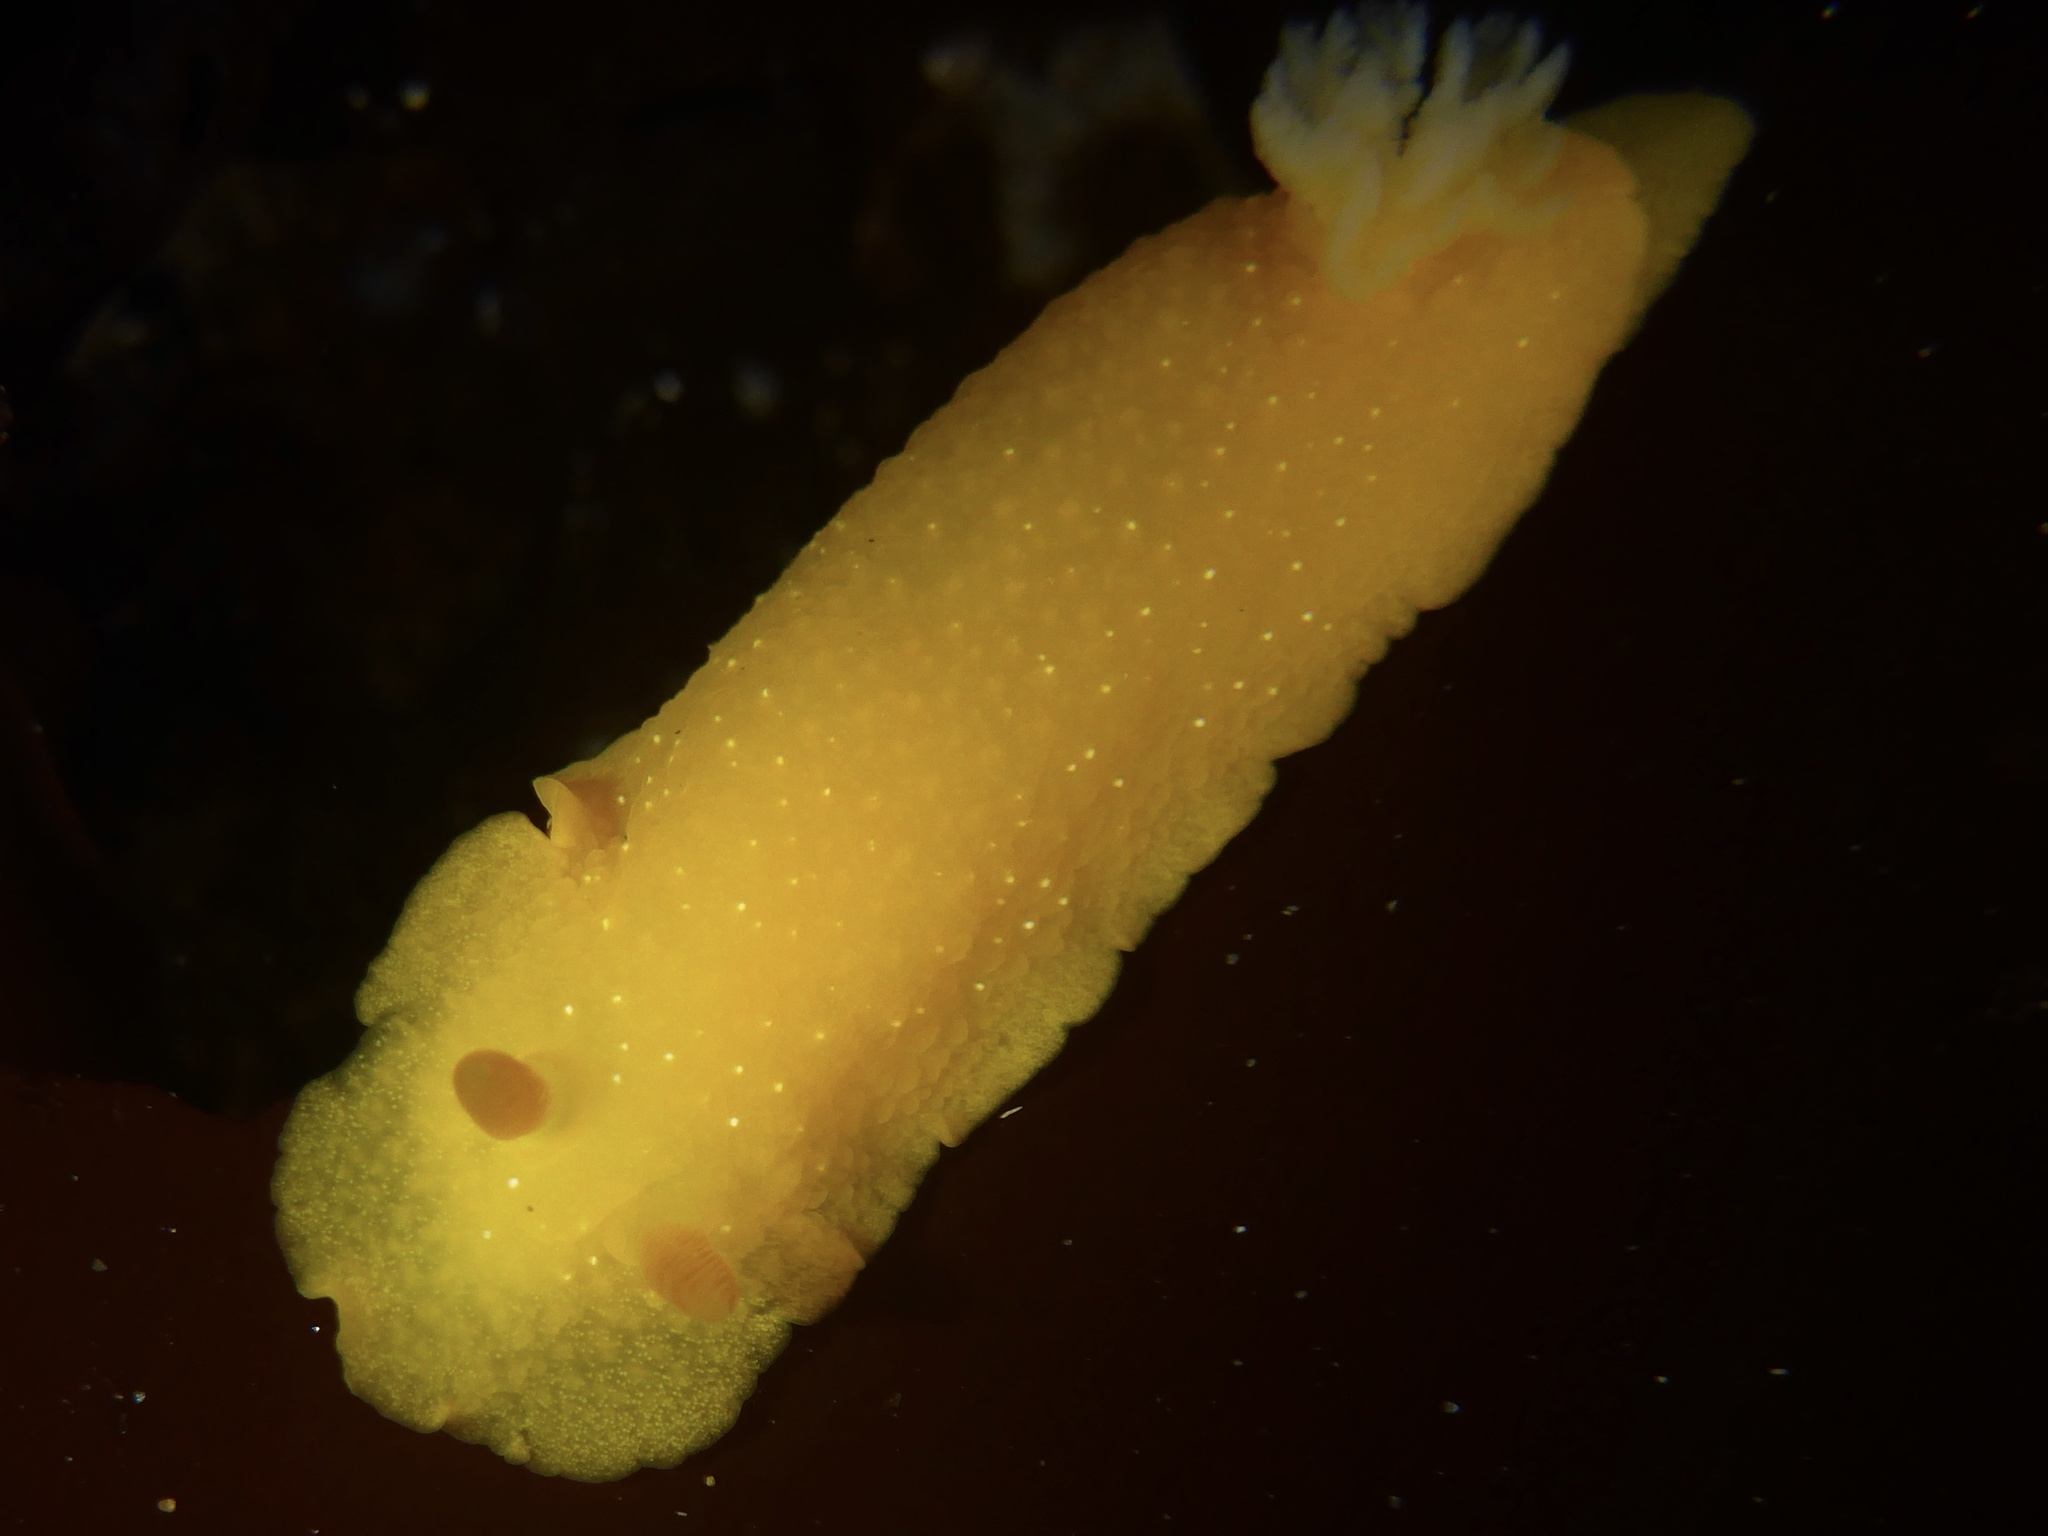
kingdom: Animalia
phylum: Mollusca
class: Gastropoda
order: Nudibranchia
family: Dendrodorididae
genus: Doriopsilla
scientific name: Doriopsilla fulva
